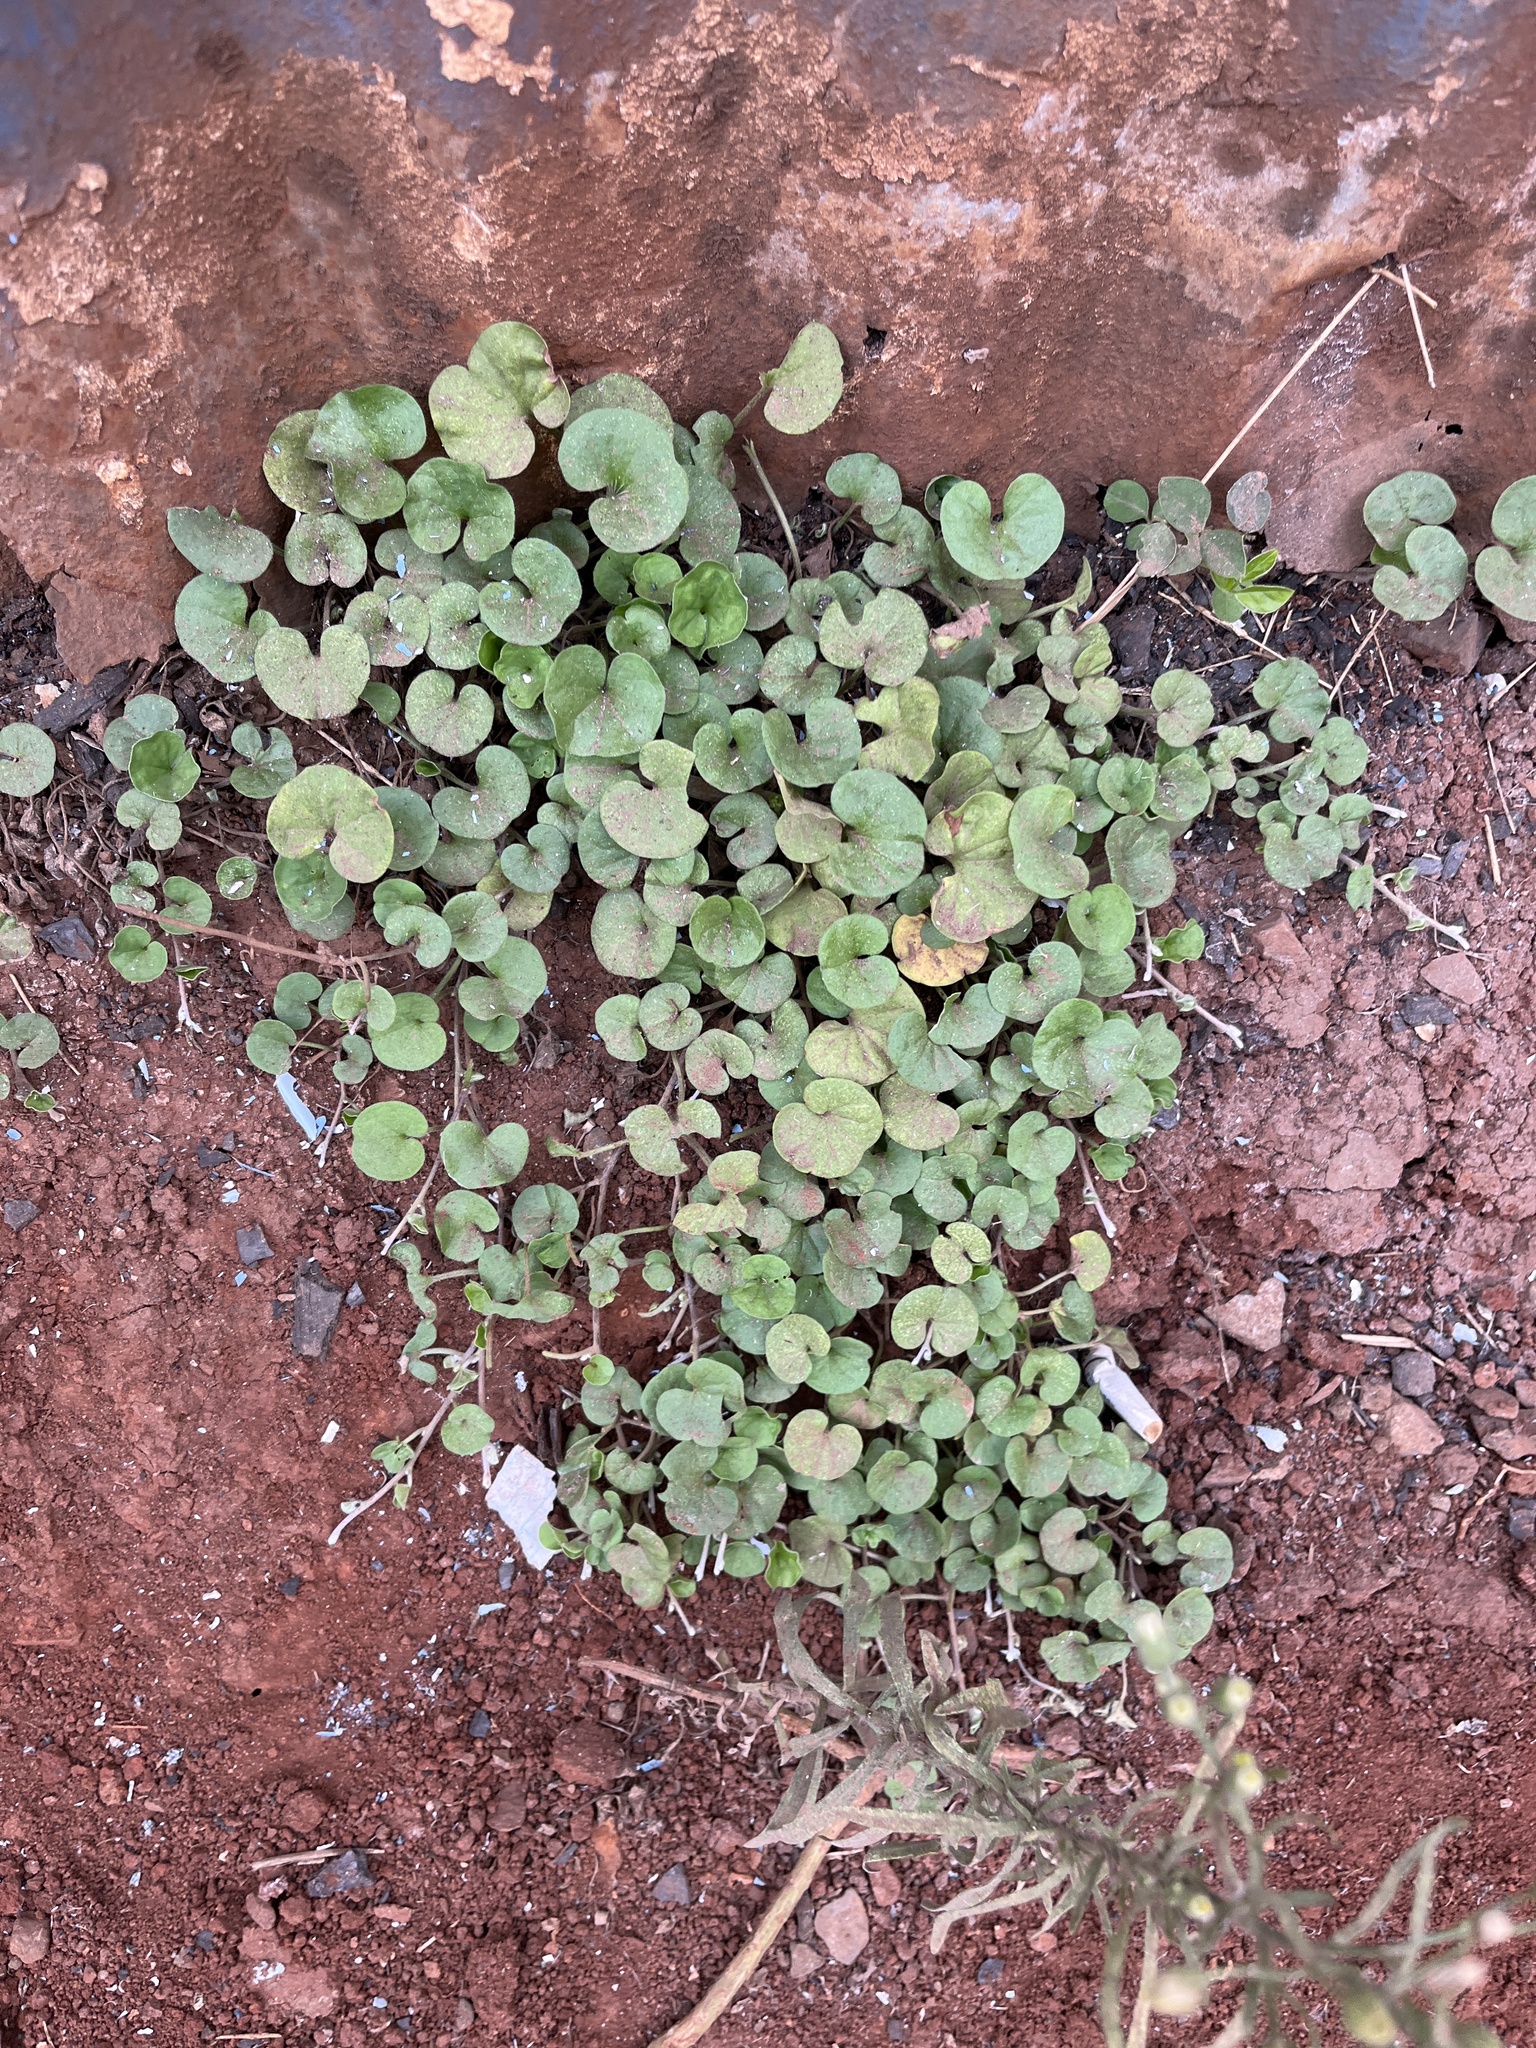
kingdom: Plantae
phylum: Tracheophyta
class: Magnoliopsida
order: Solanales
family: Convolvulaceae
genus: Dichondra
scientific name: Dichondra repens
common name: Kidneyweed
